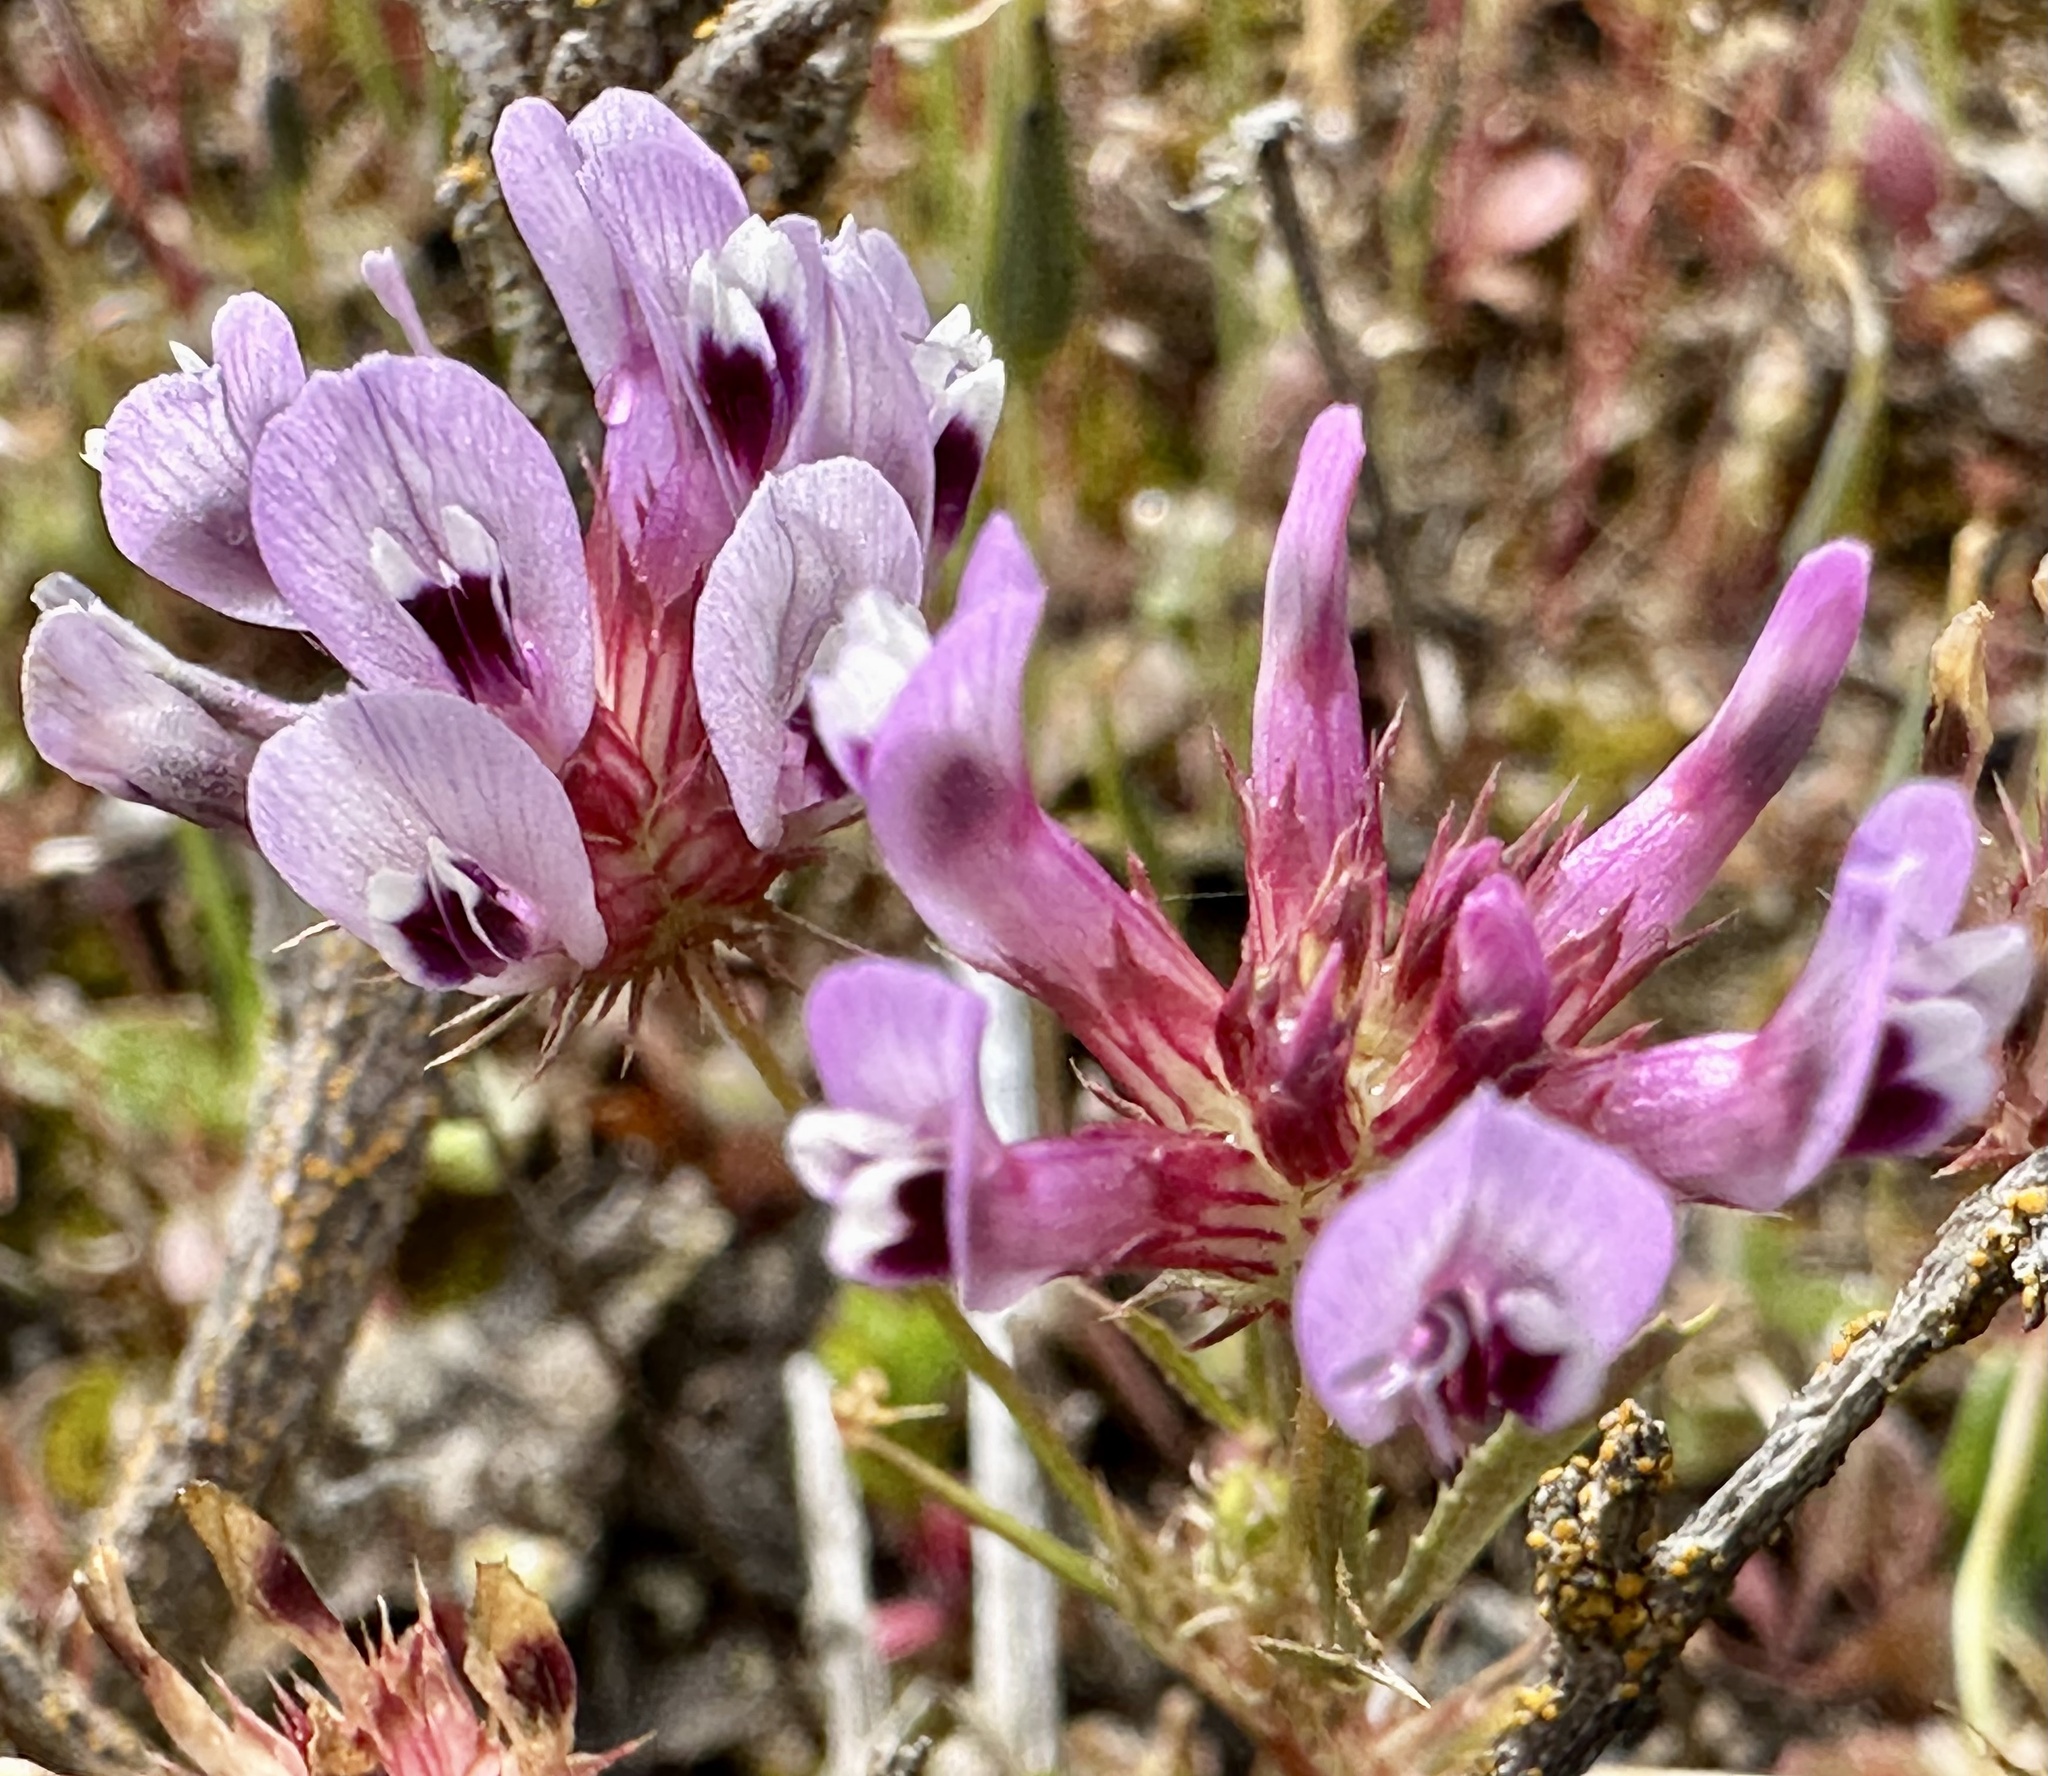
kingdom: Plantae
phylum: Tracheophyta
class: Magnoliopsida
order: Fabales
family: Fabaceae
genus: Trifolium
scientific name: Trifolium willdenovii
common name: Tomcat clover
